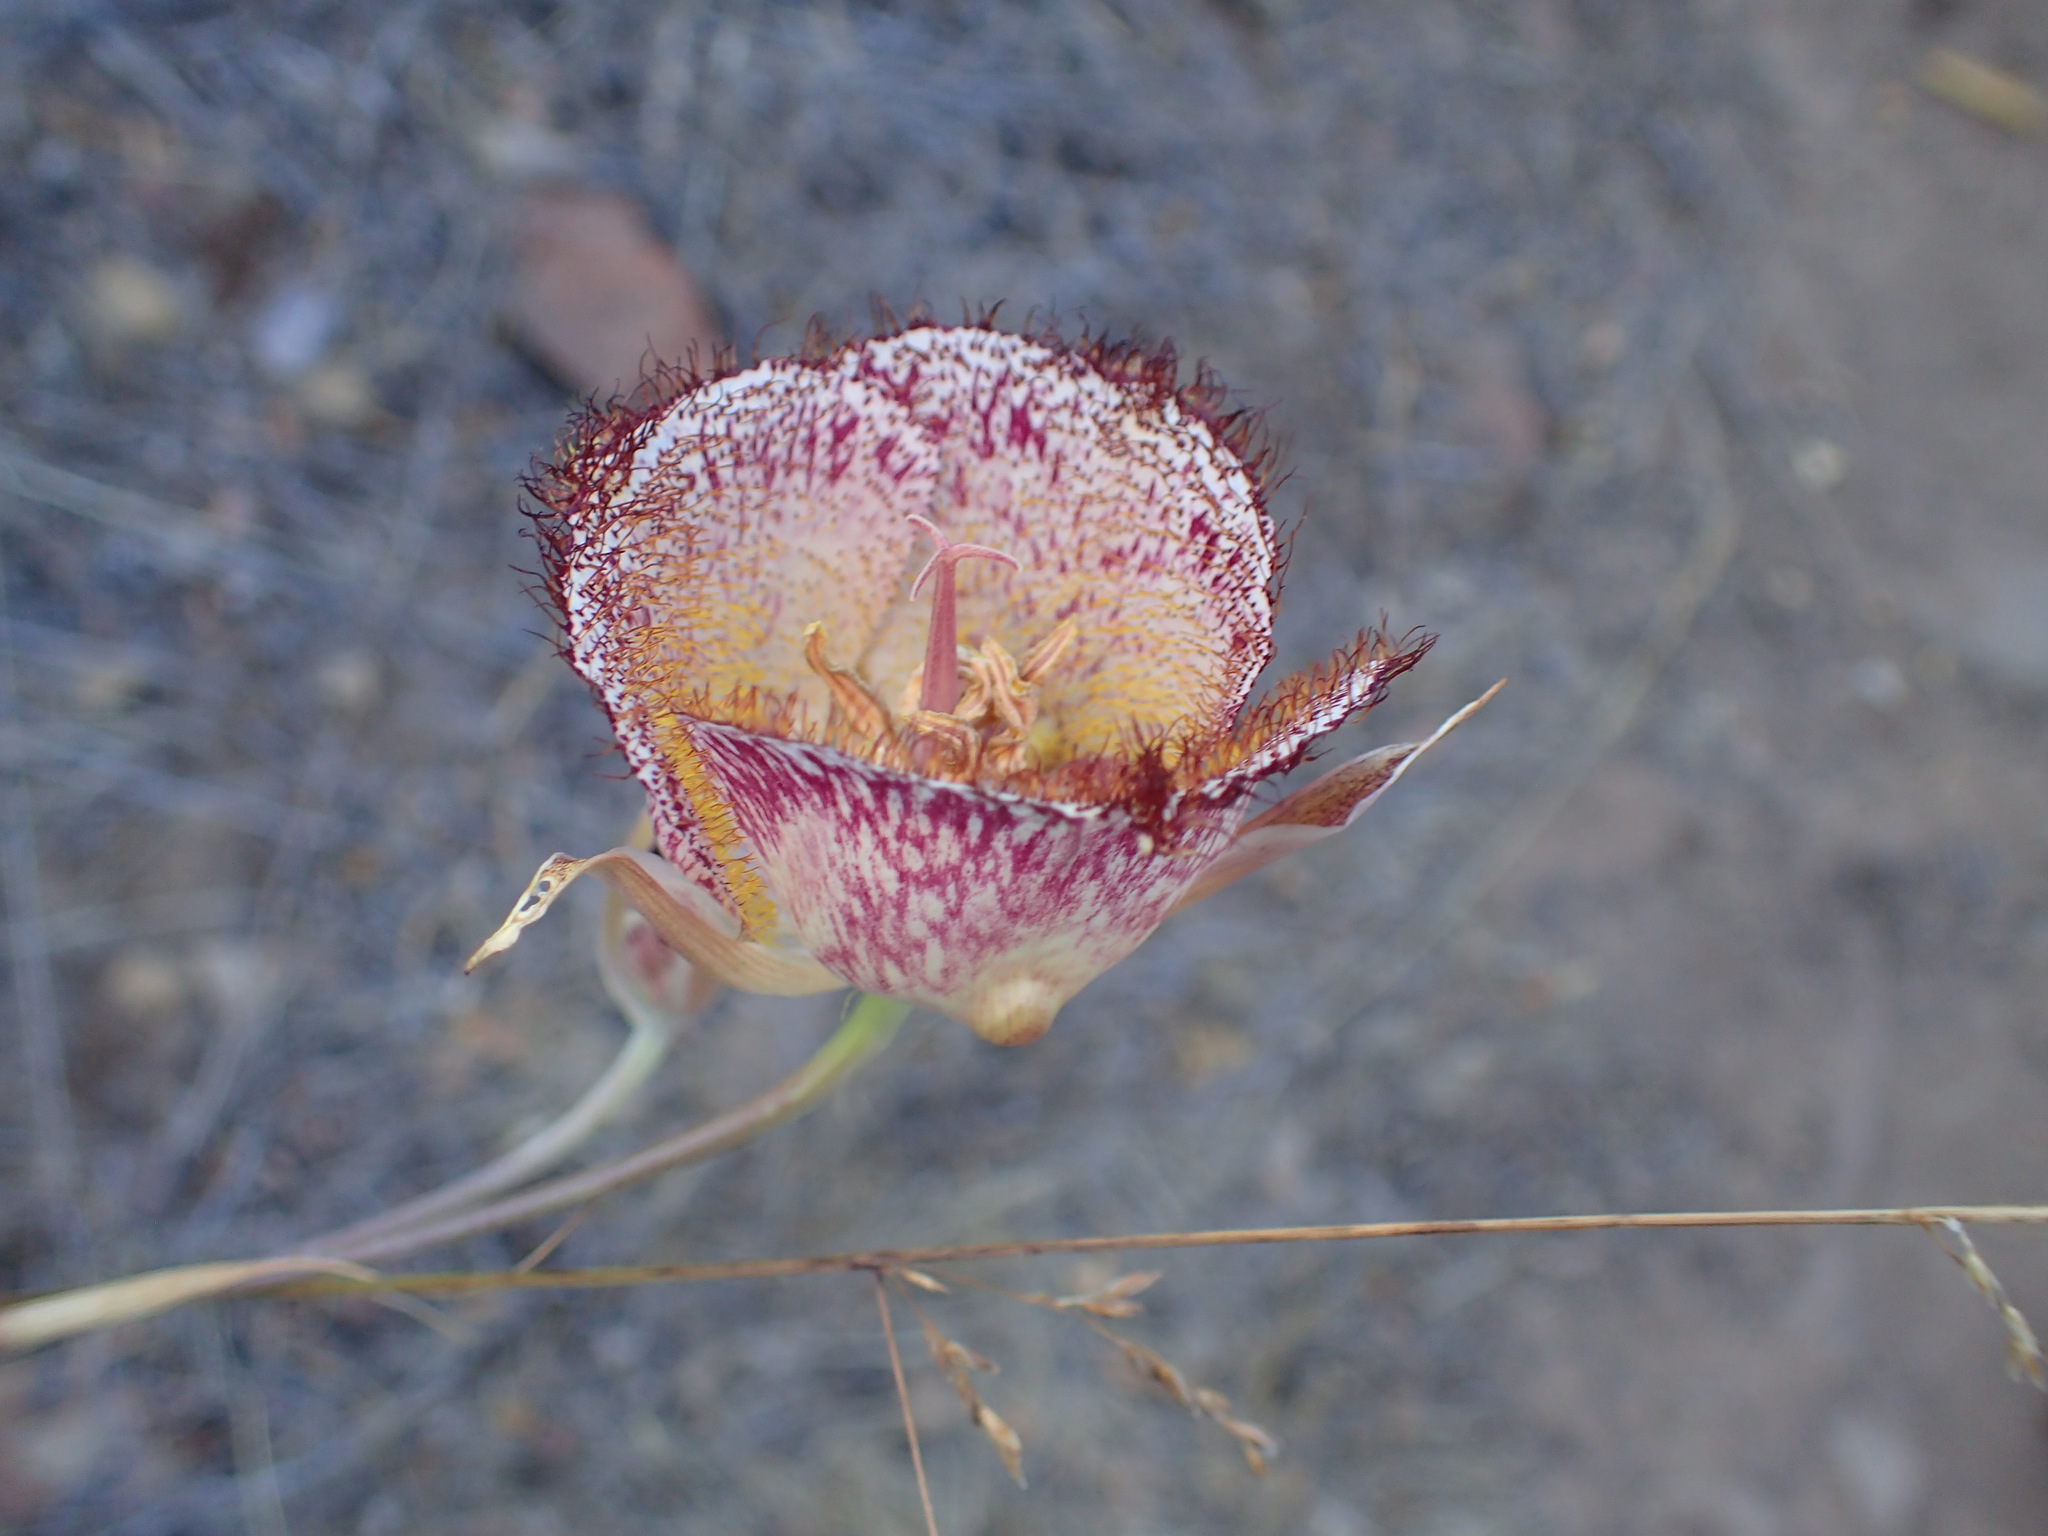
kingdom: Plantae
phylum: Tracheophyta
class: Liliopsida
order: Liliales
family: Liliaceae
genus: Calochortus
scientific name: Calochortus fimbriatus
